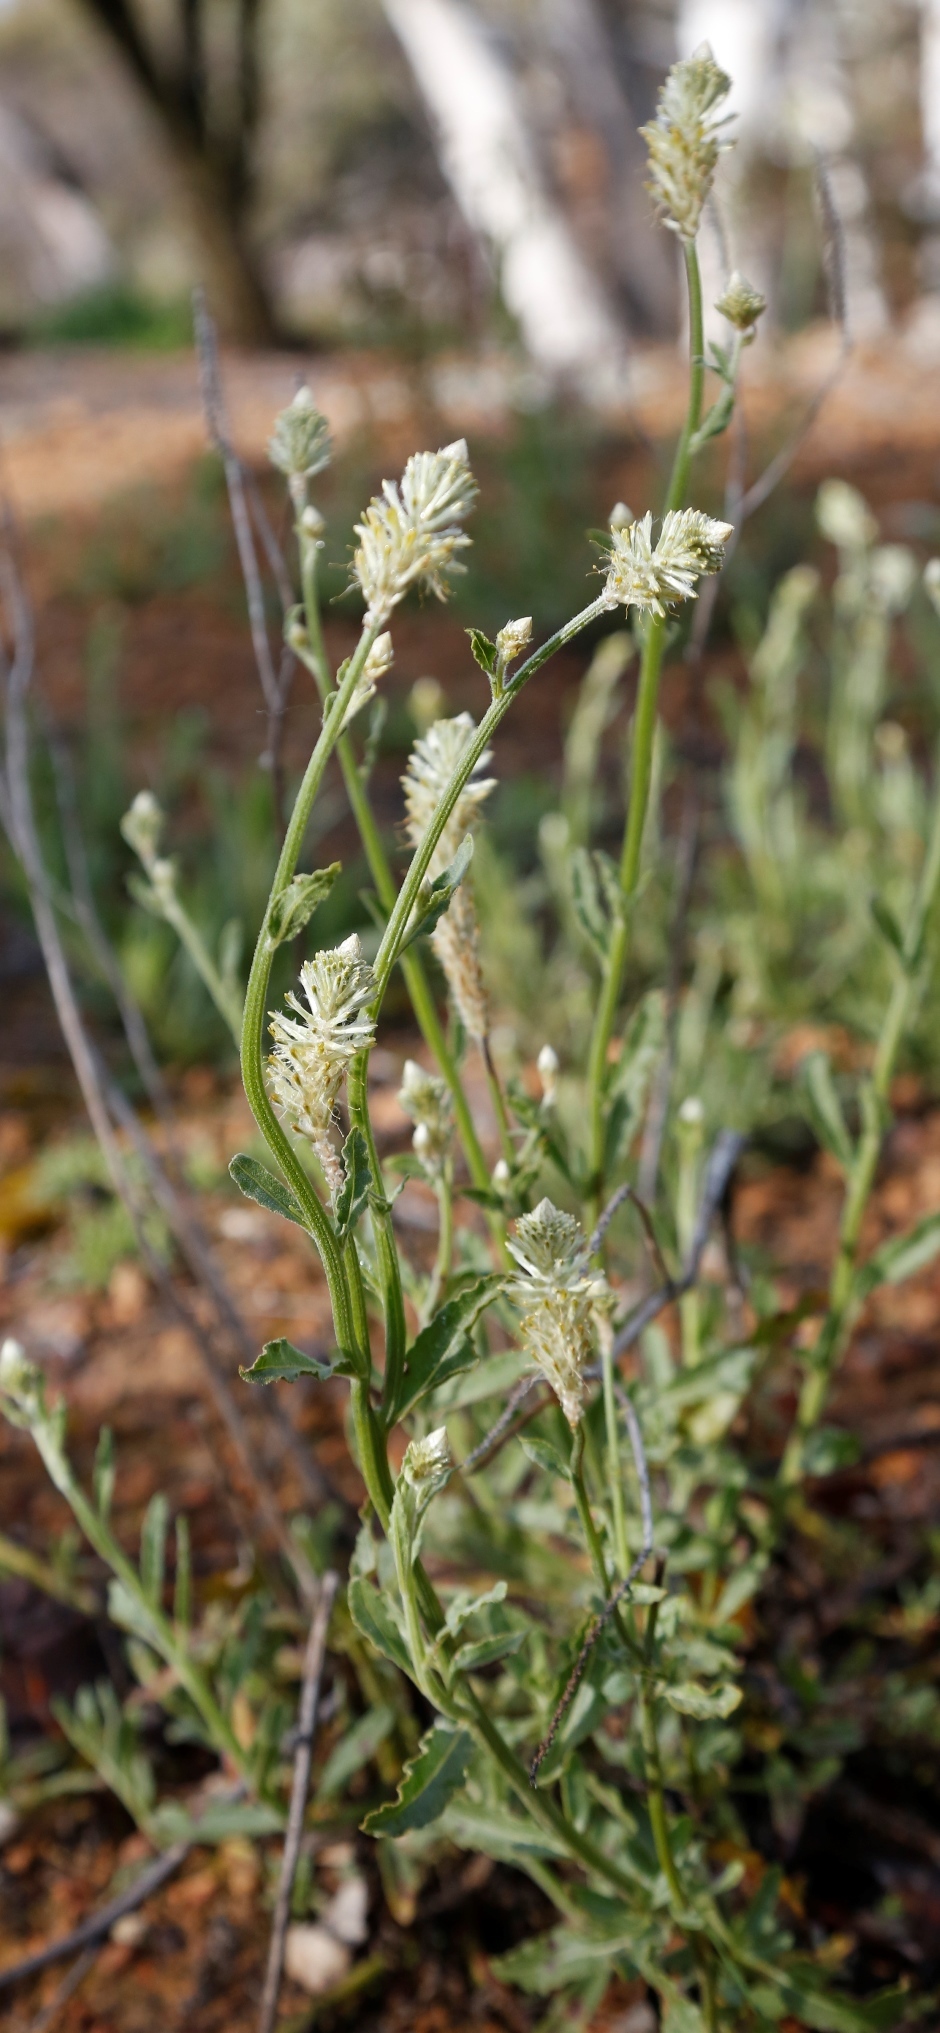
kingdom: Plantae
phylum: Tracheophyta
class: Magnoliopsida
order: Caryophyllales
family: Amaranthaceae
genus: Ptilotus
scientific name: Ptilotus polystachyus
